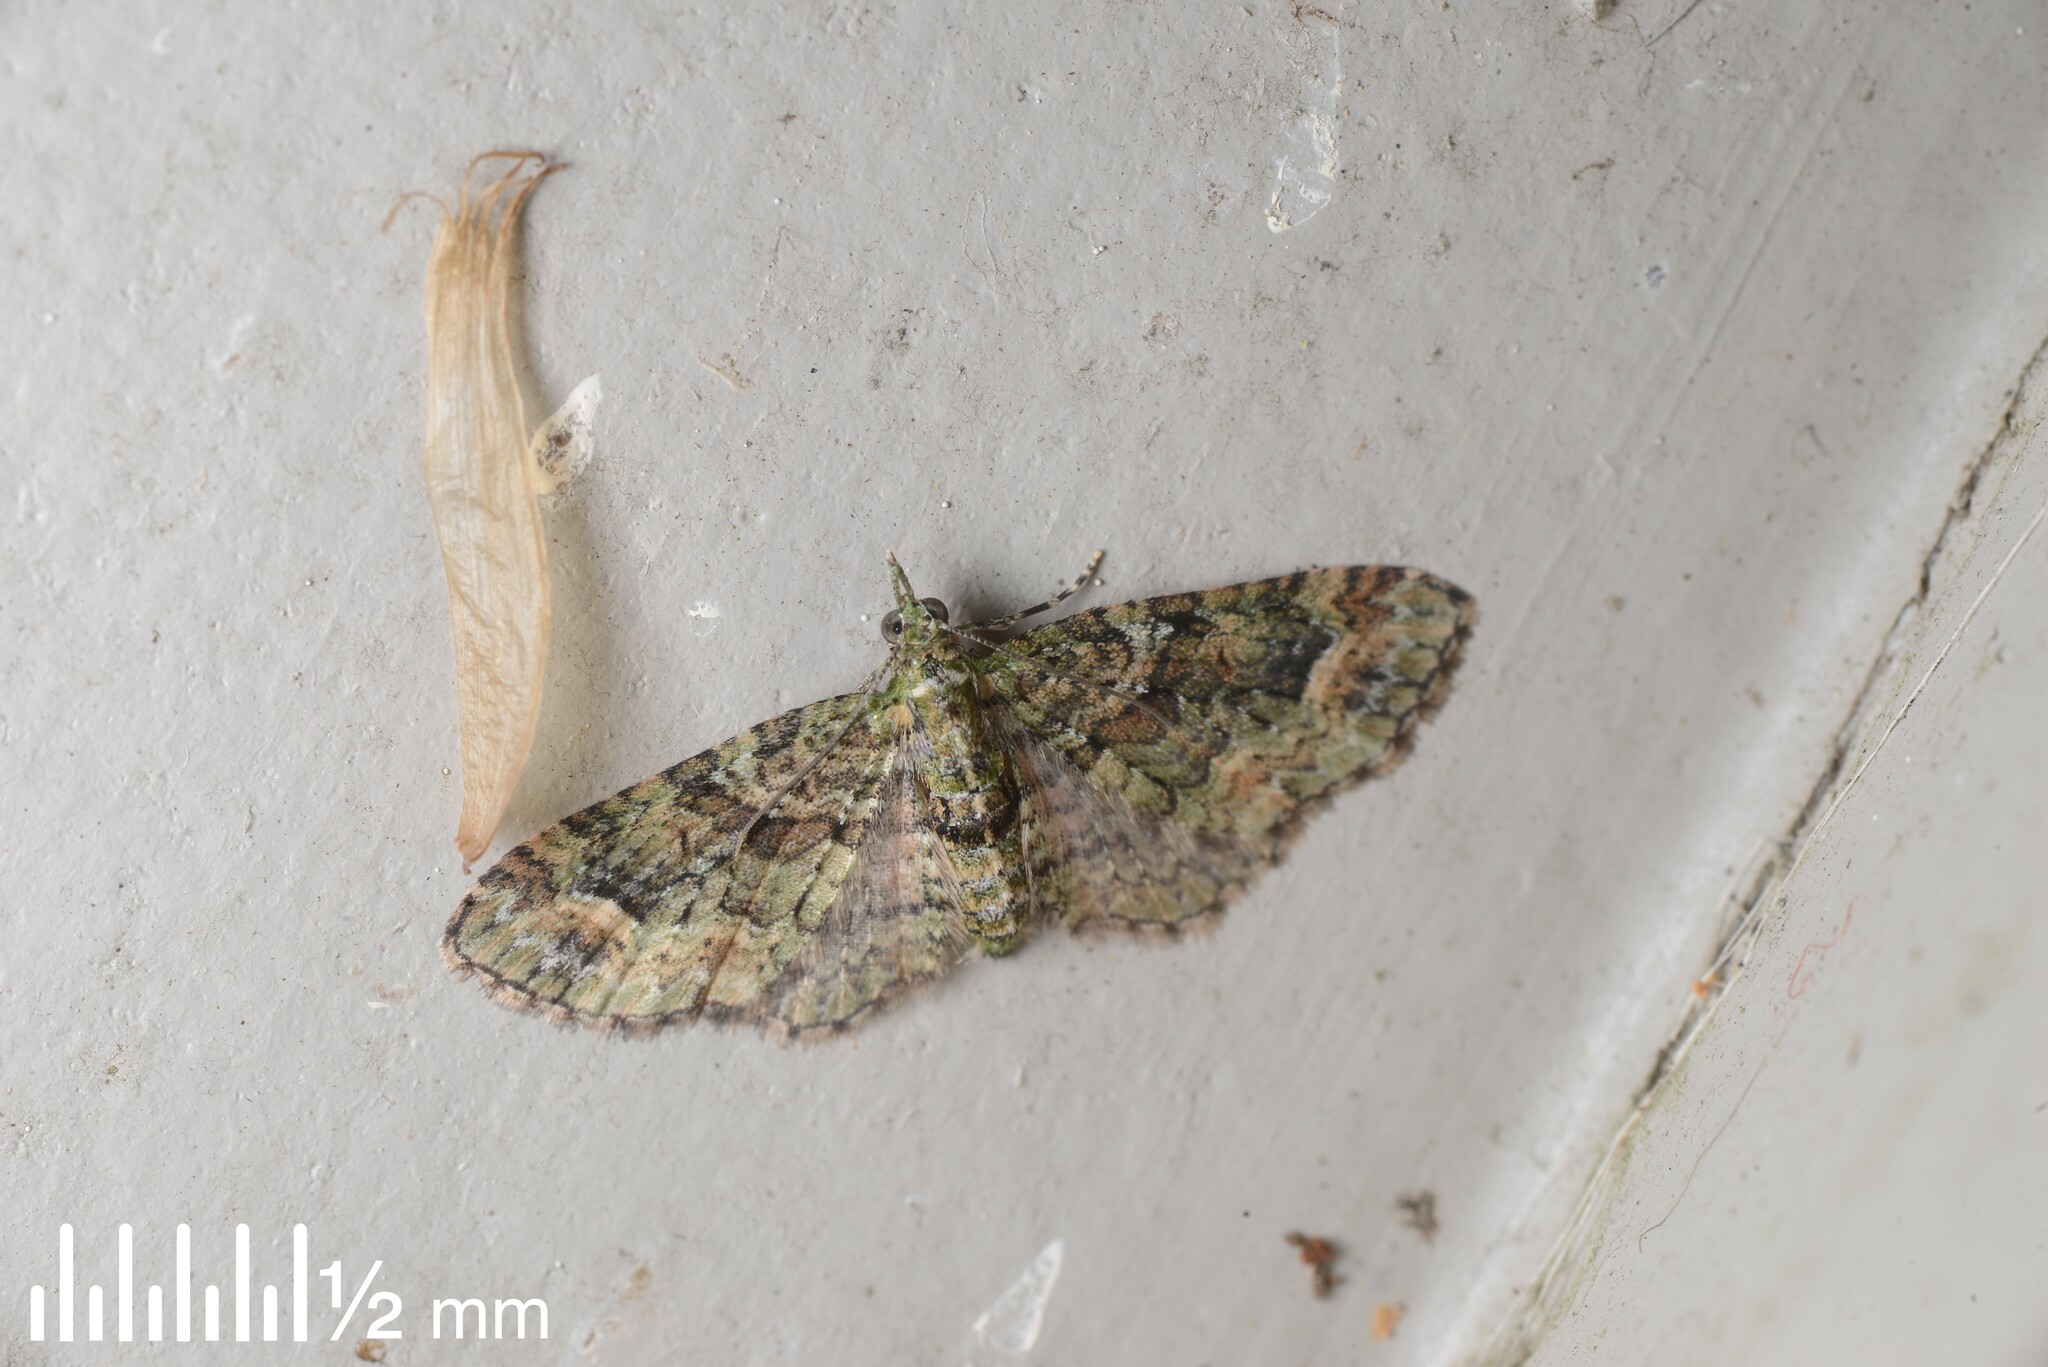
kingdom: Animalia
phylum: Arthropoda
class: Insecta
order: Lepidoptera
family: Geometridae
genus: Idaea
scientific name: Idaea mutanda
